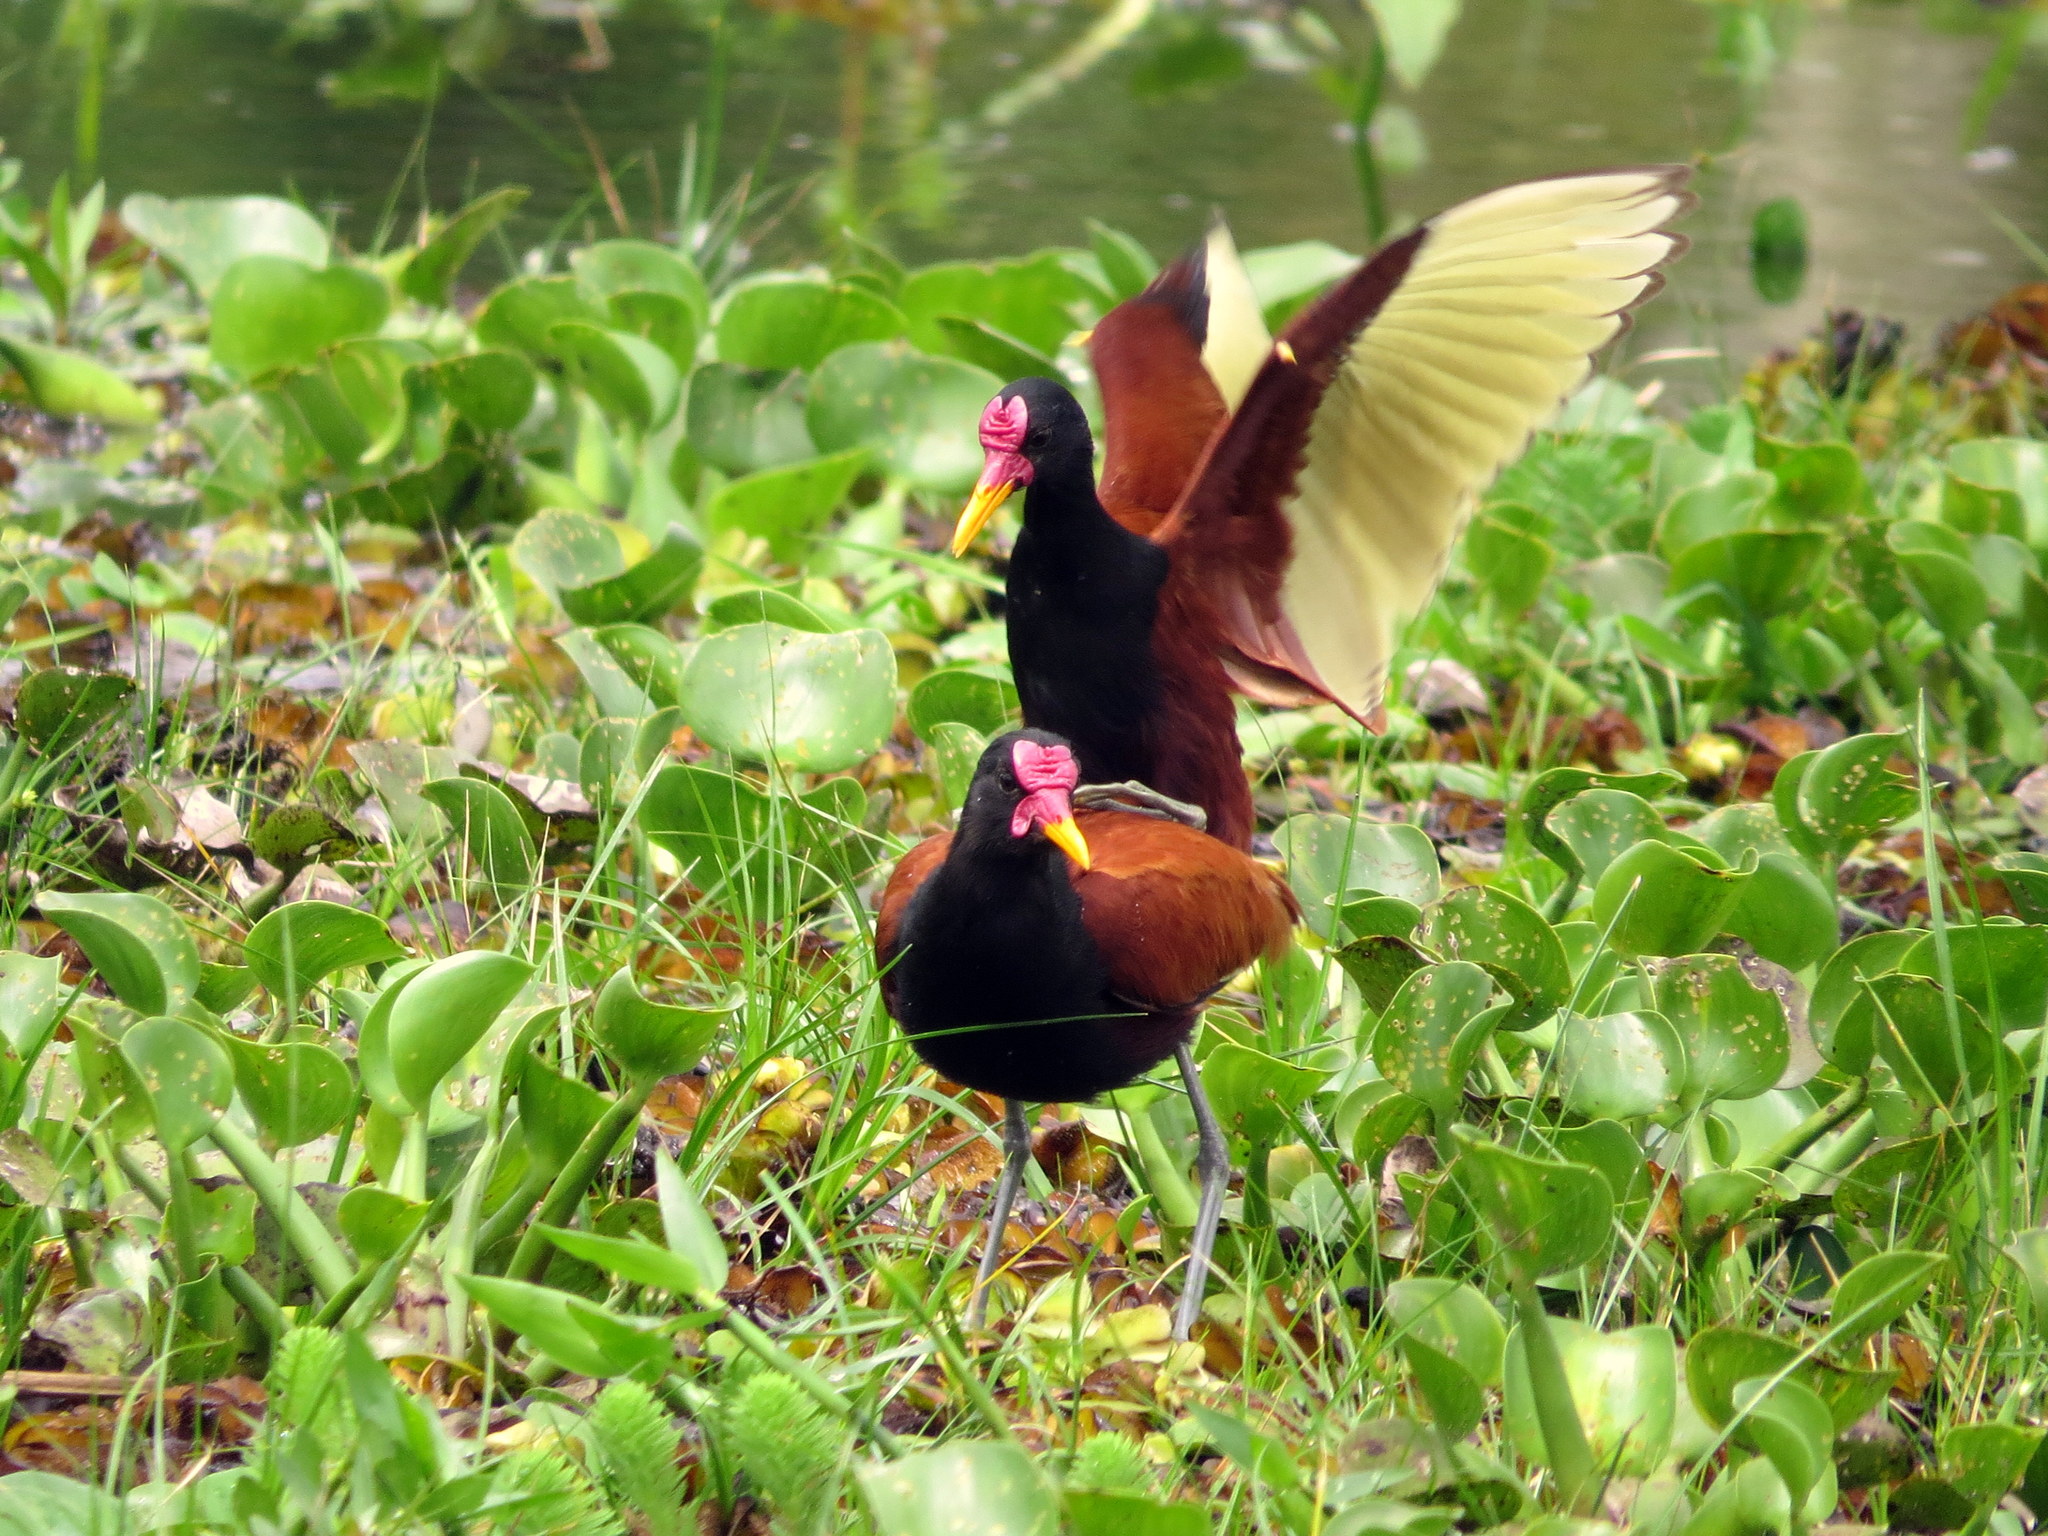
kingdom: Animalia
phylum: Chordata
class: Aves
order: Charadriiformes
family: Jacanidae
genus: Jacana
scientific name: Jacana jacana
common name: Wattled jacana
